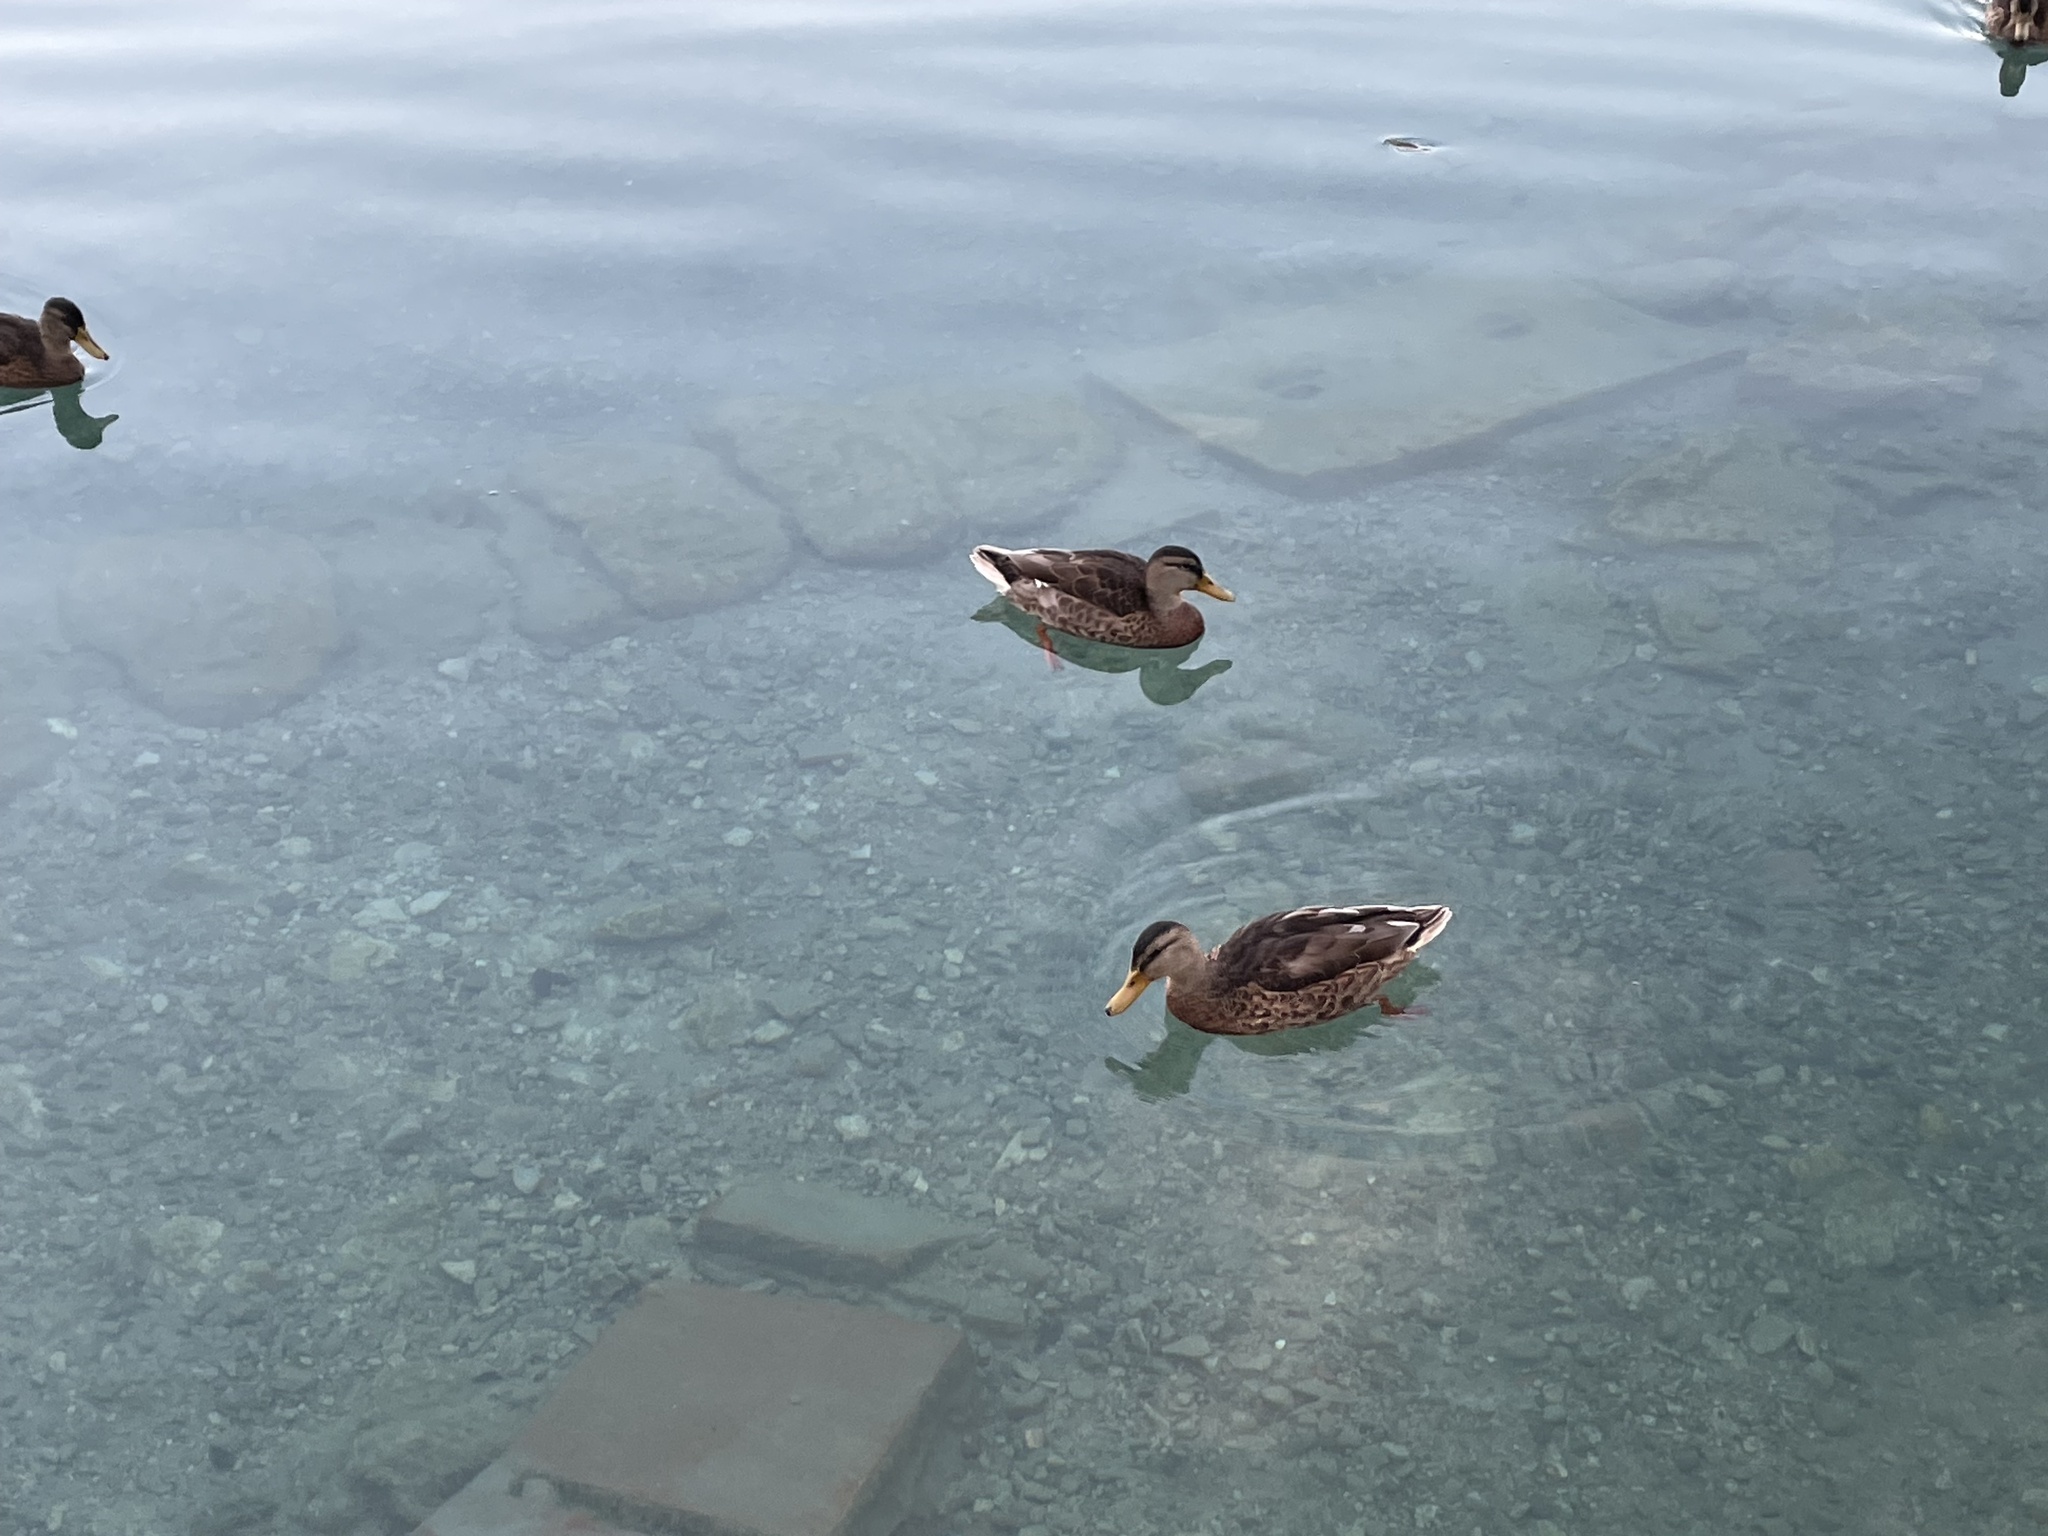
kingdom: Animalia
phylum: Chordata
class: Aves
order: Anseriformes
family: Anatidae
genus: Anas
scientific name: Anas platyrhynchos
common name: Mallard
